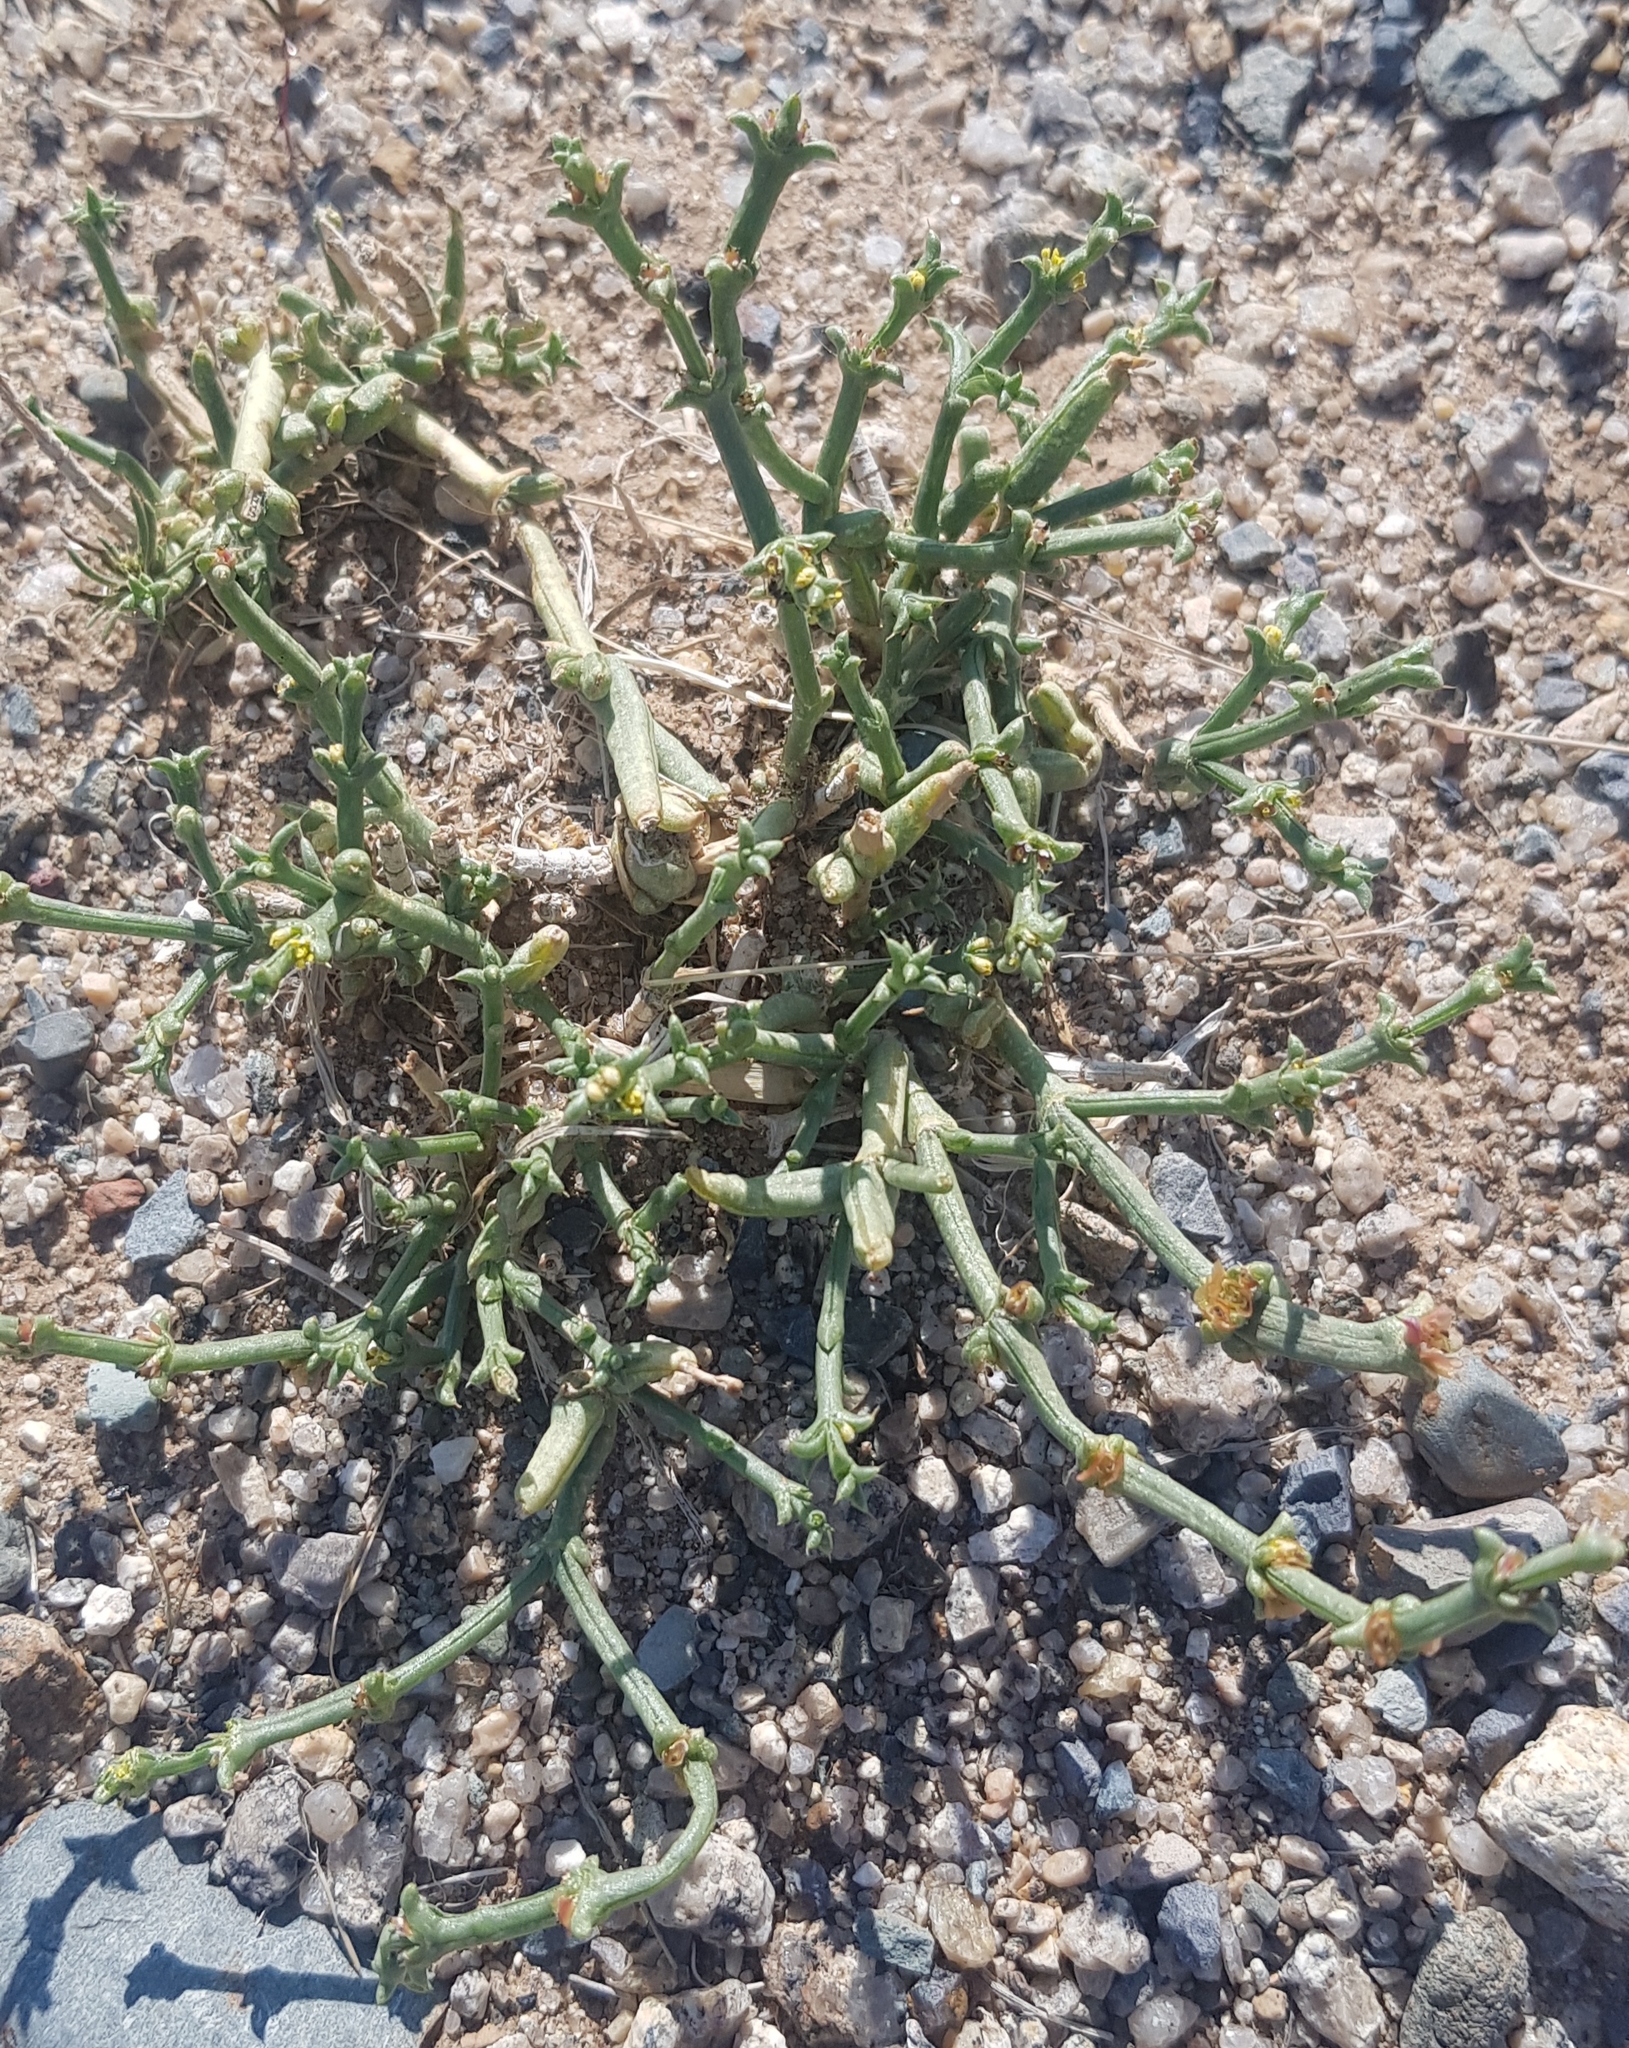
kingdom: Plantae
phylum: Tracheophyta
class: Magnoliopsida
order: Caryophyllales
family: Amaranthaceae
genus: Anabasis
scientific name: Anabasis brevifolia
